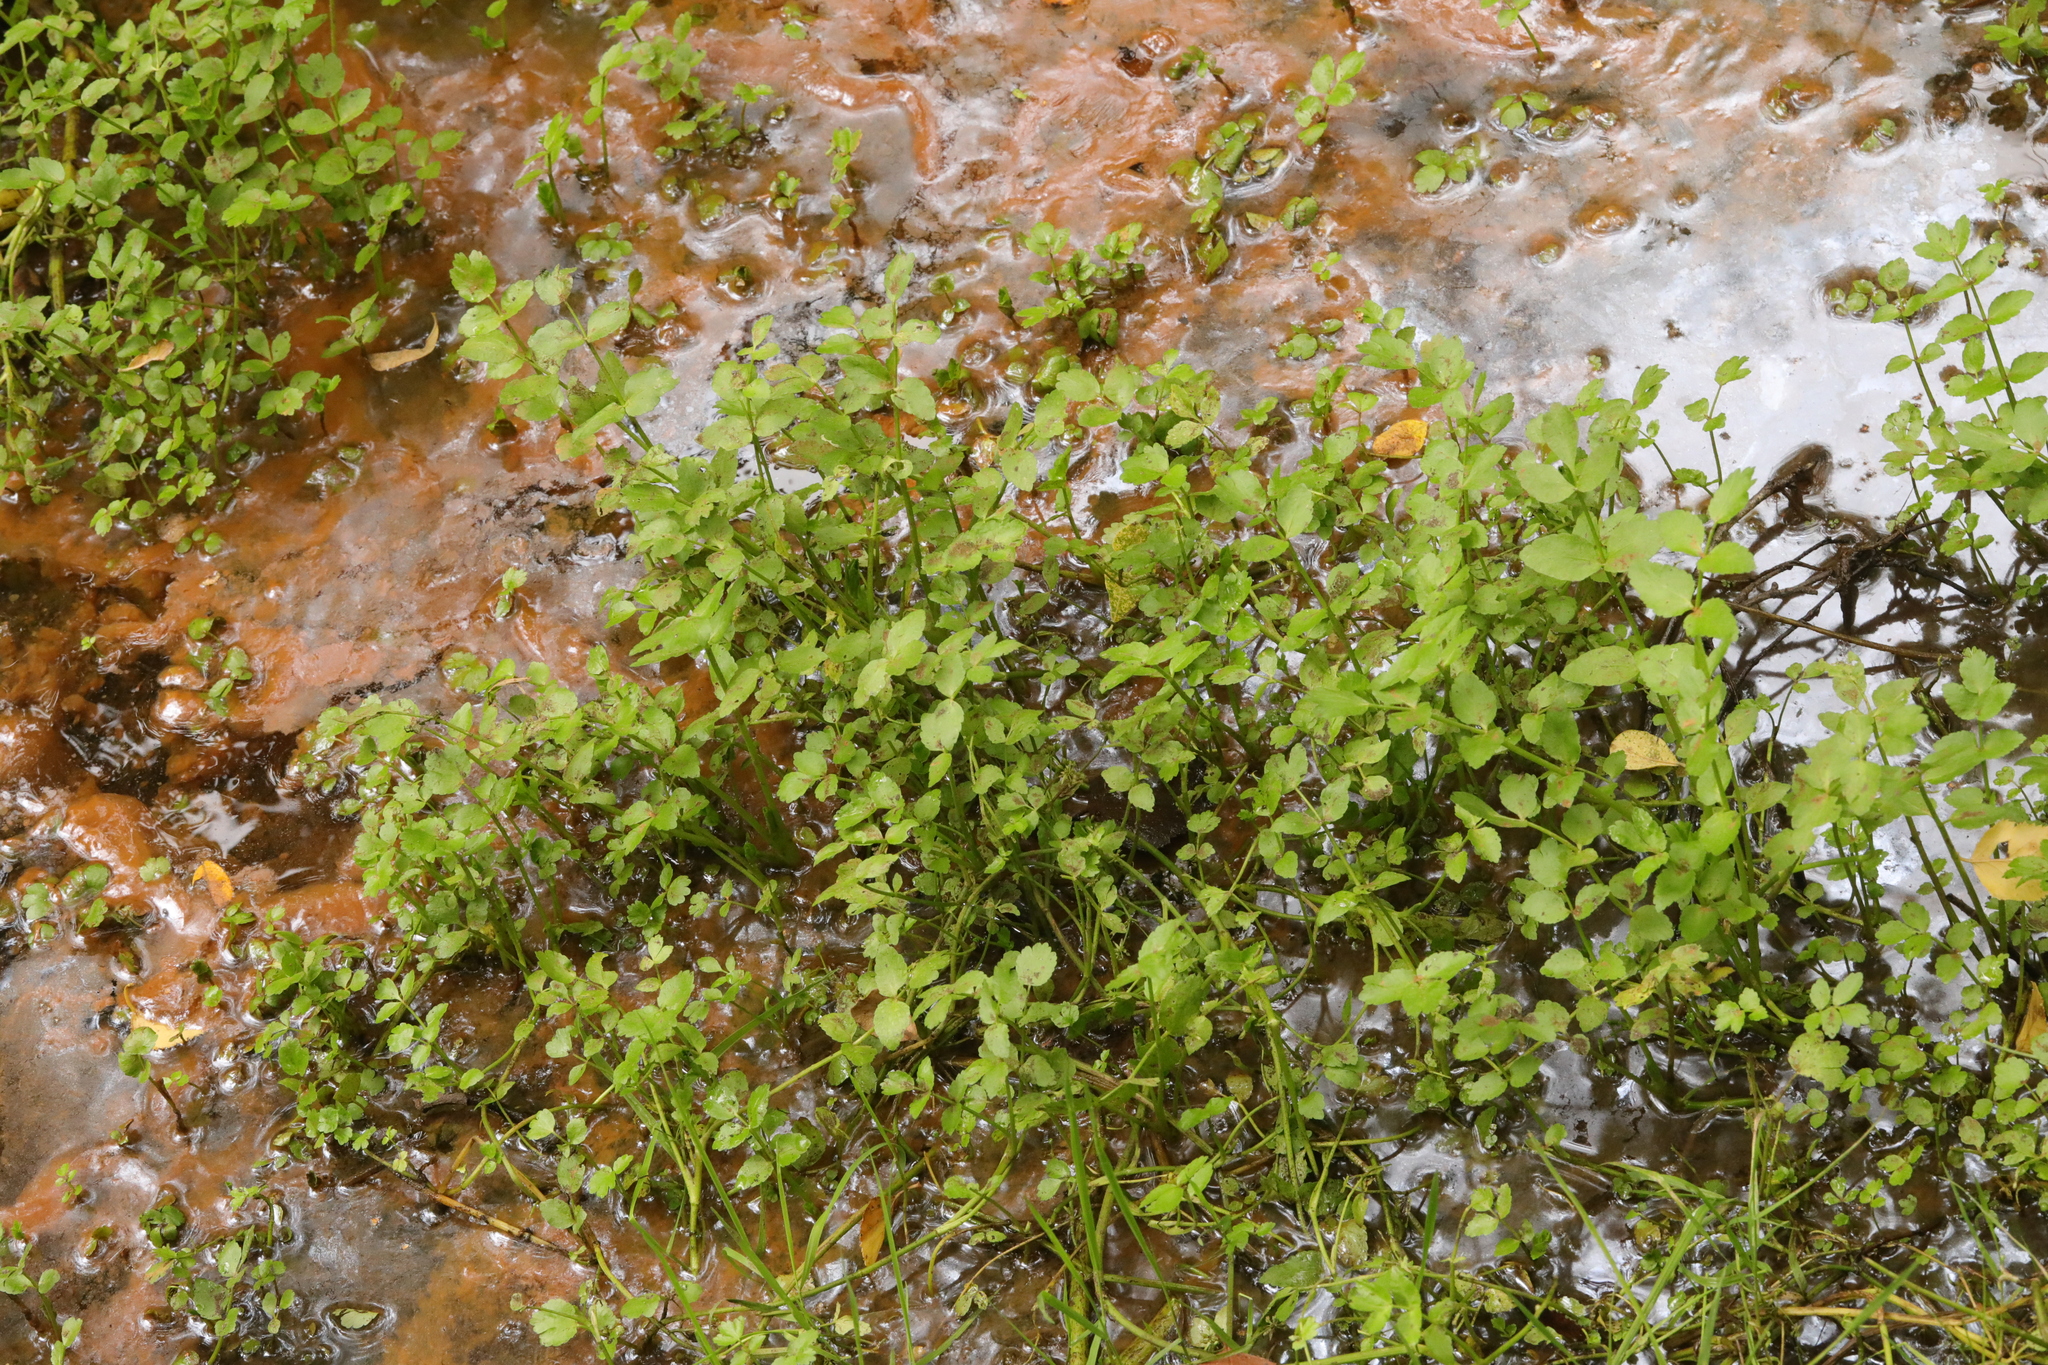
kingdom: Plantae
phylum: Tracheophyta
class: Magnoliopsida
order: Apiales
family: Apiaceae
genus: Helosciadium
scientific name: Helosciadium nodiflorum
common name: Fool's-watercress
